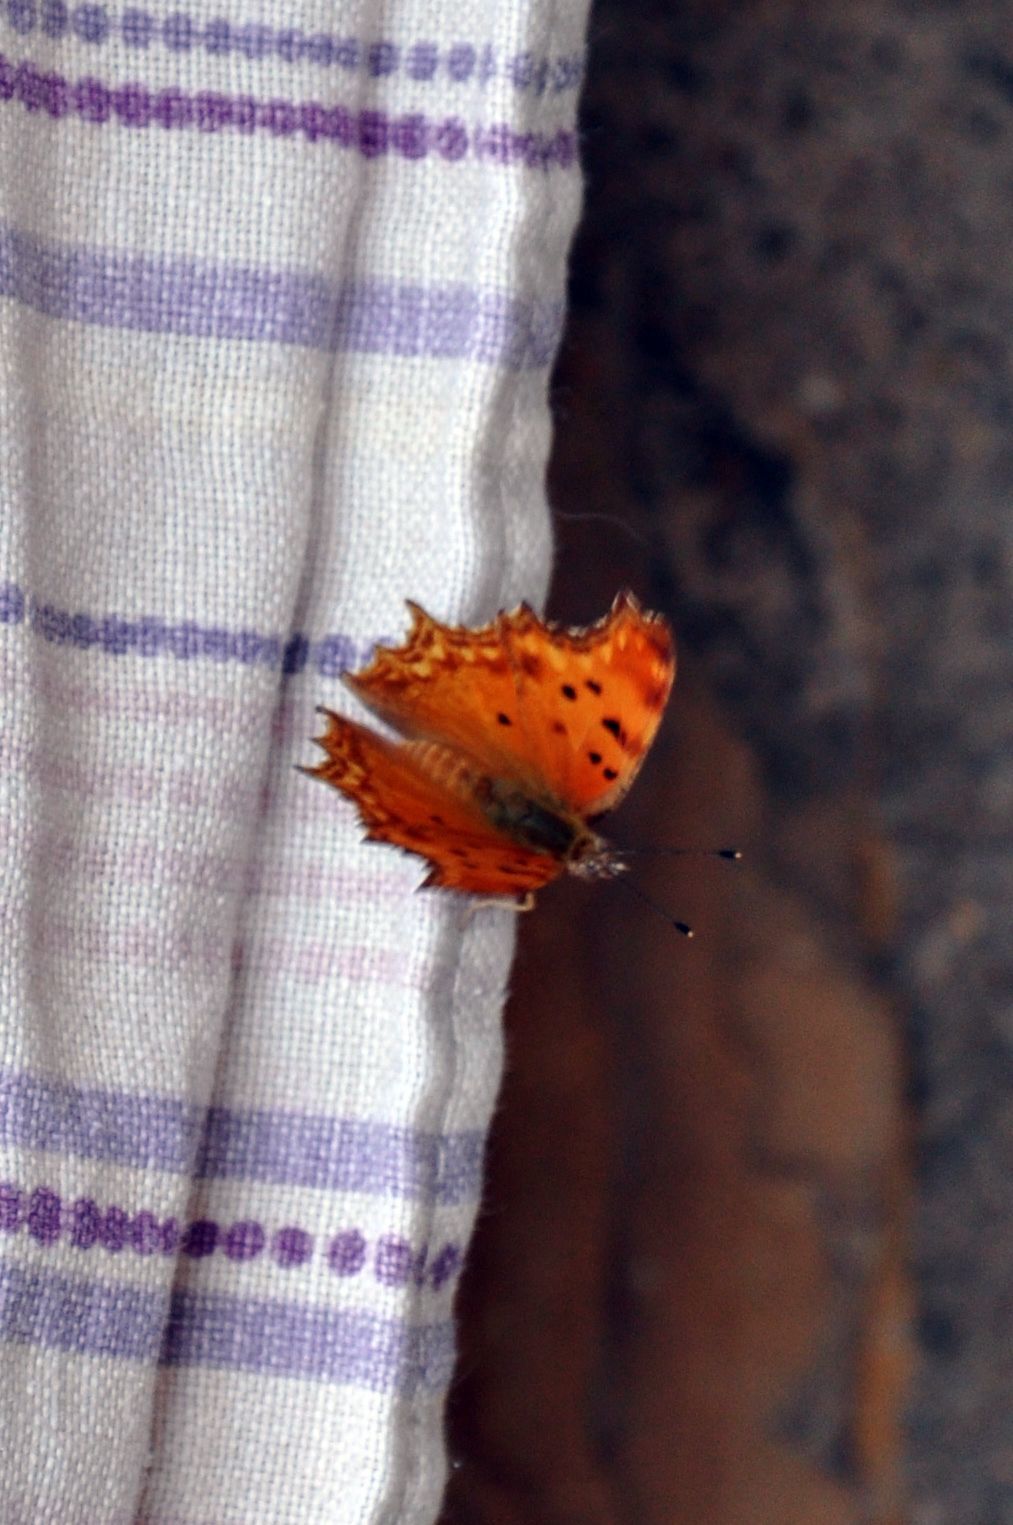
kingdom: Animalia
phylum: Arthropoda
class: Insecta
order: Lepidoptera
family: Nymphalidae
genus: Polygonia
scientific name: Polygonia egea
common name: Southern comma
